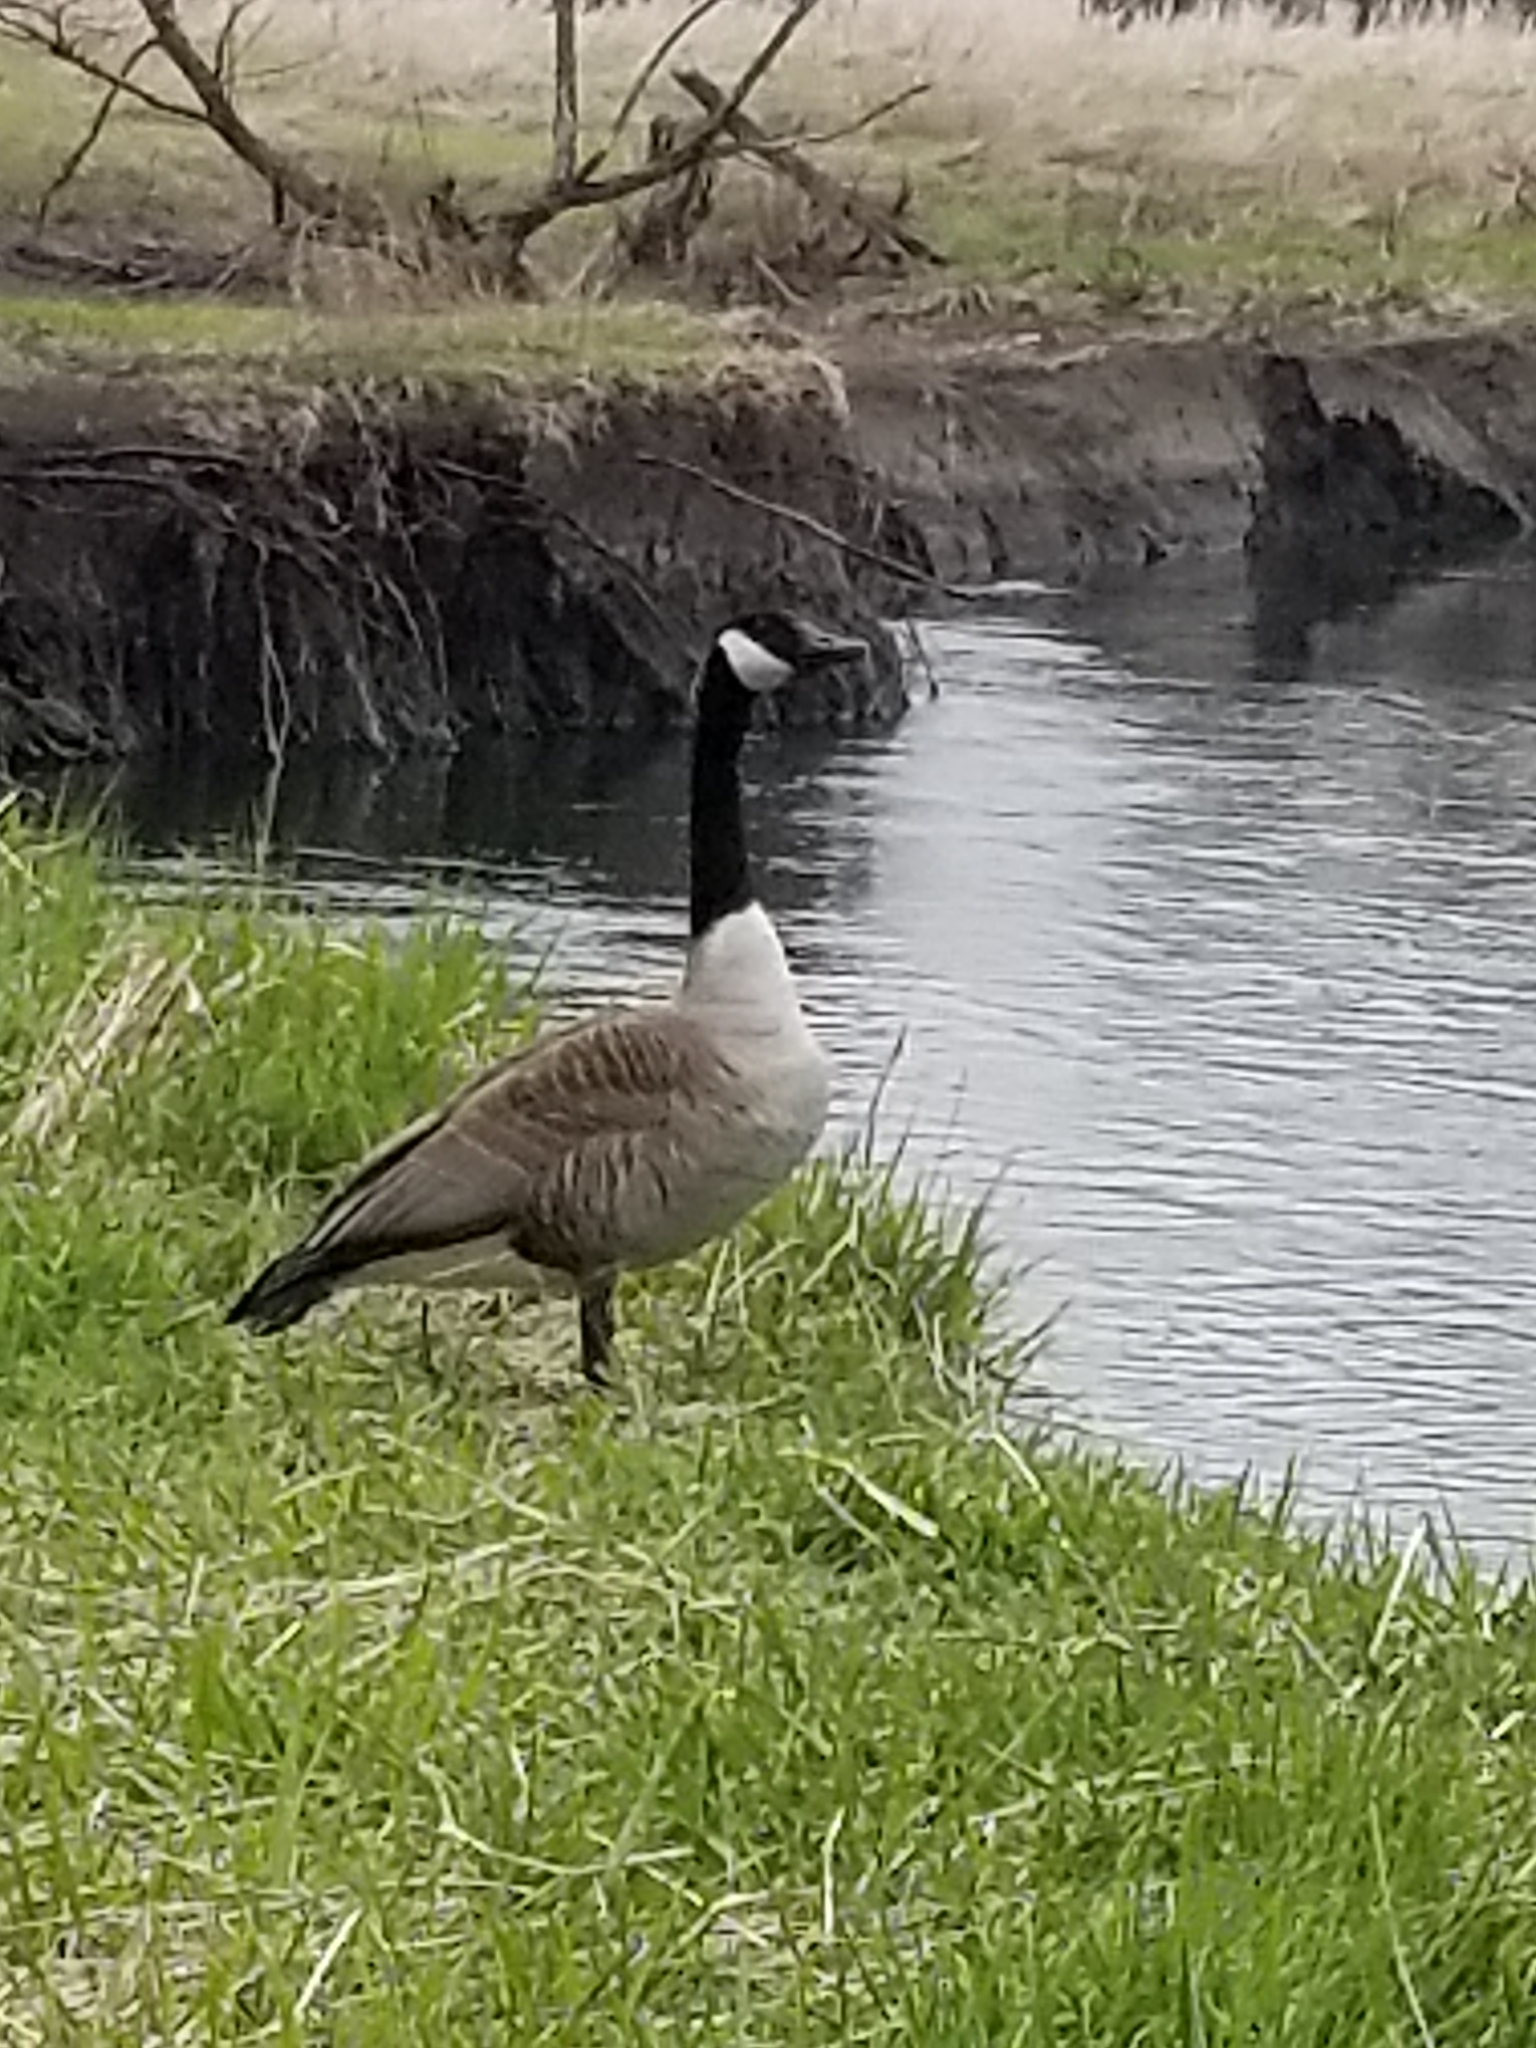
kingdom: Animalia
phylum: Chordata
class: Aves
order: Anseriformes
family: Anatidae
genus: Branta
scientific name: Branta canadensis
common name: Canada goose
